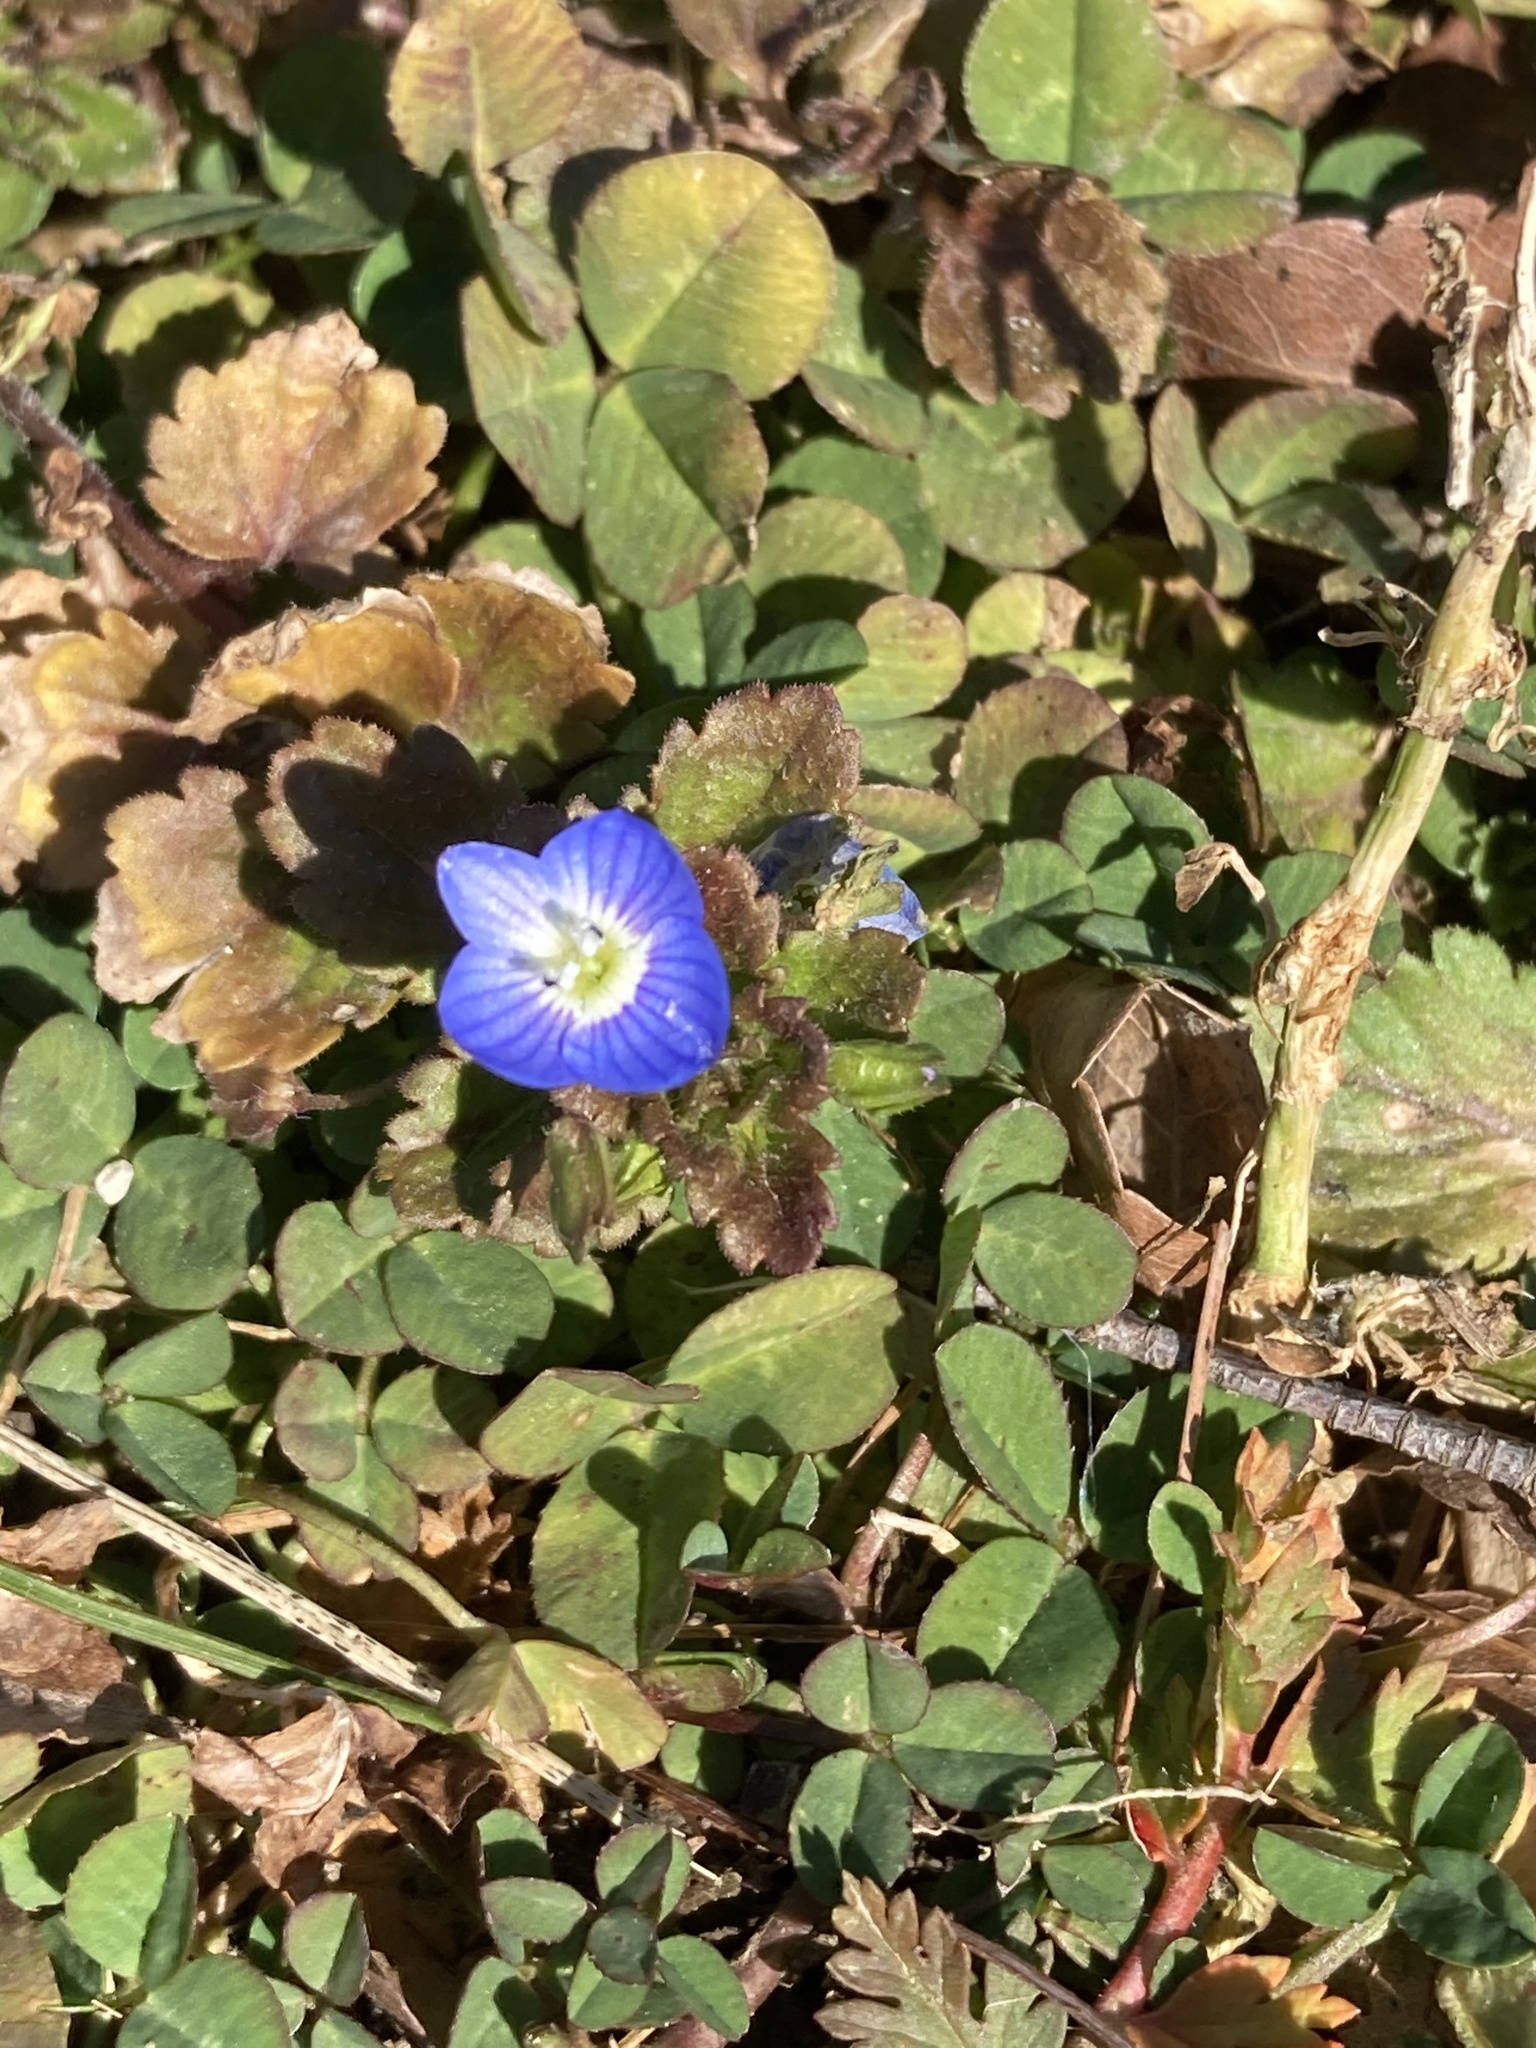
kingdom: Plantae
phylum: Tracheophyta
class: Magnoliopsida
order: Lamiales
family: Plantaginaceae
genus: Veronica
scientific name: Veronica persica
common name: Common field-speedwell
